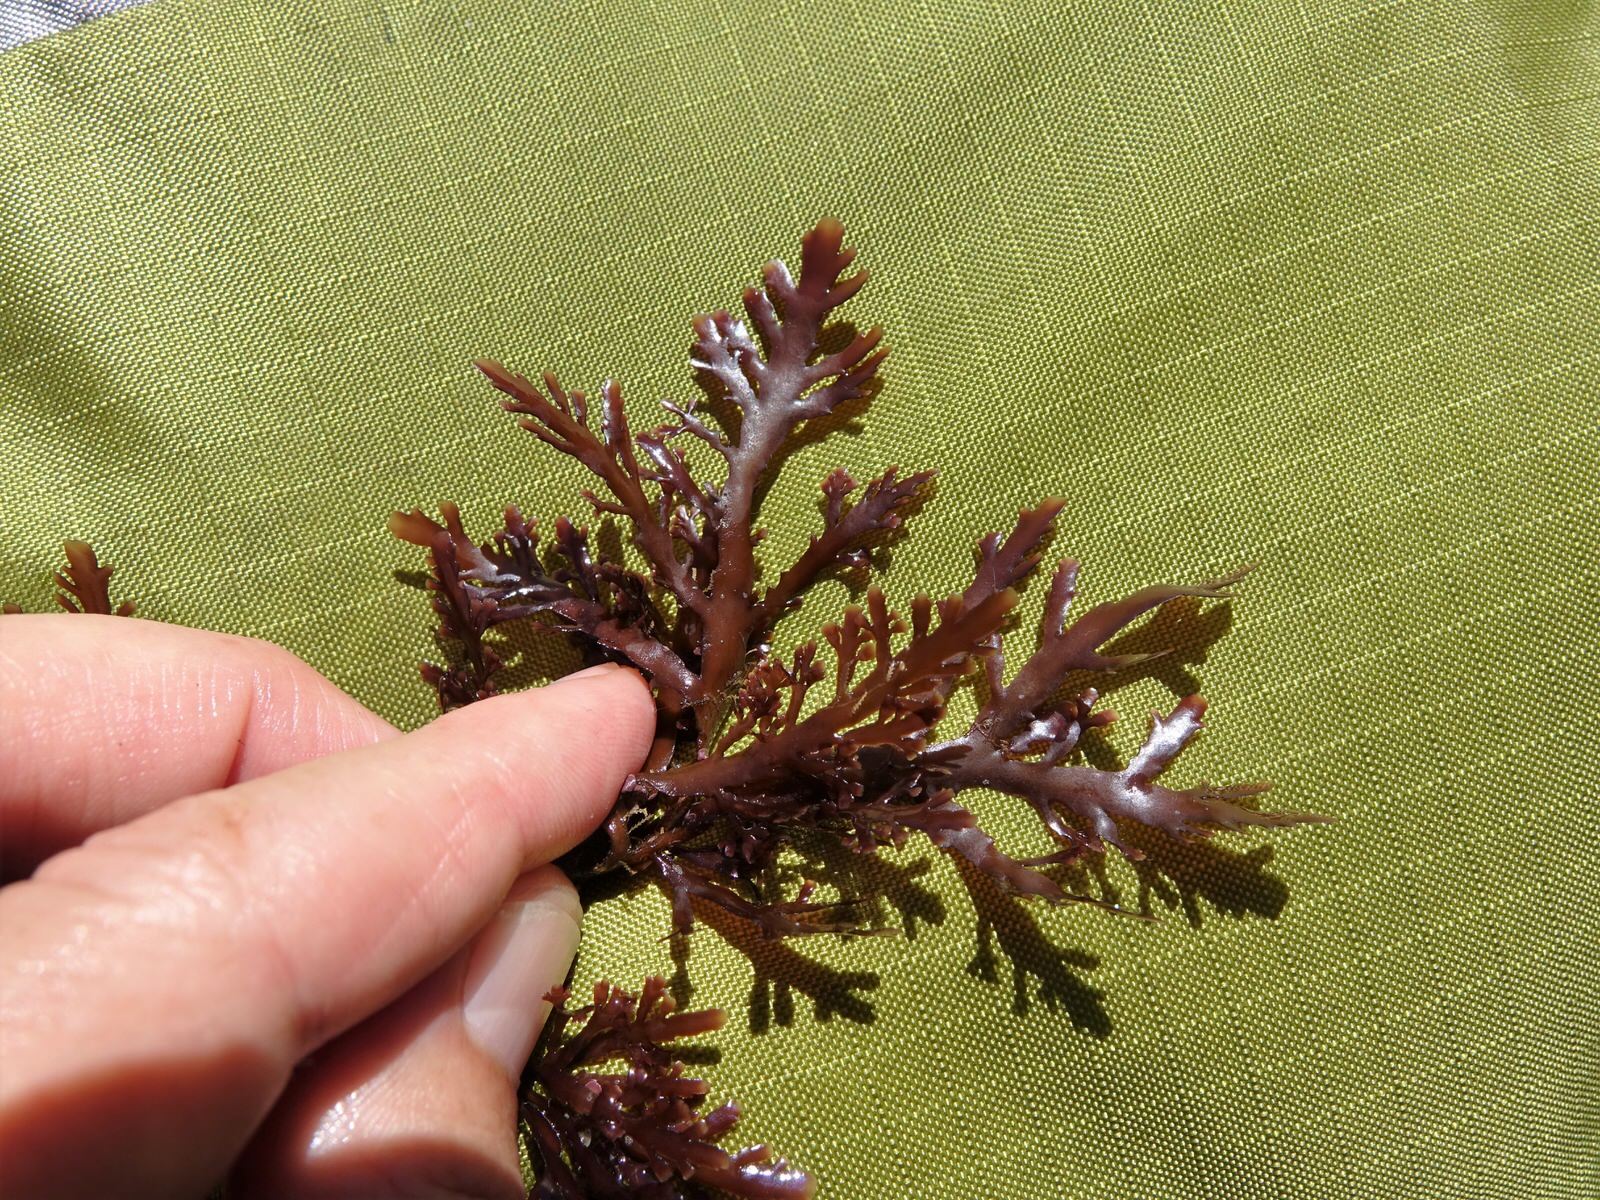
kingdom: Plantae
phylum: Rhodophyta
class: Florideophyceae
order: Gelidiales
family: Pterocladiaceae
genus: Pterocladia
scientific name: Pterocladia lucida
